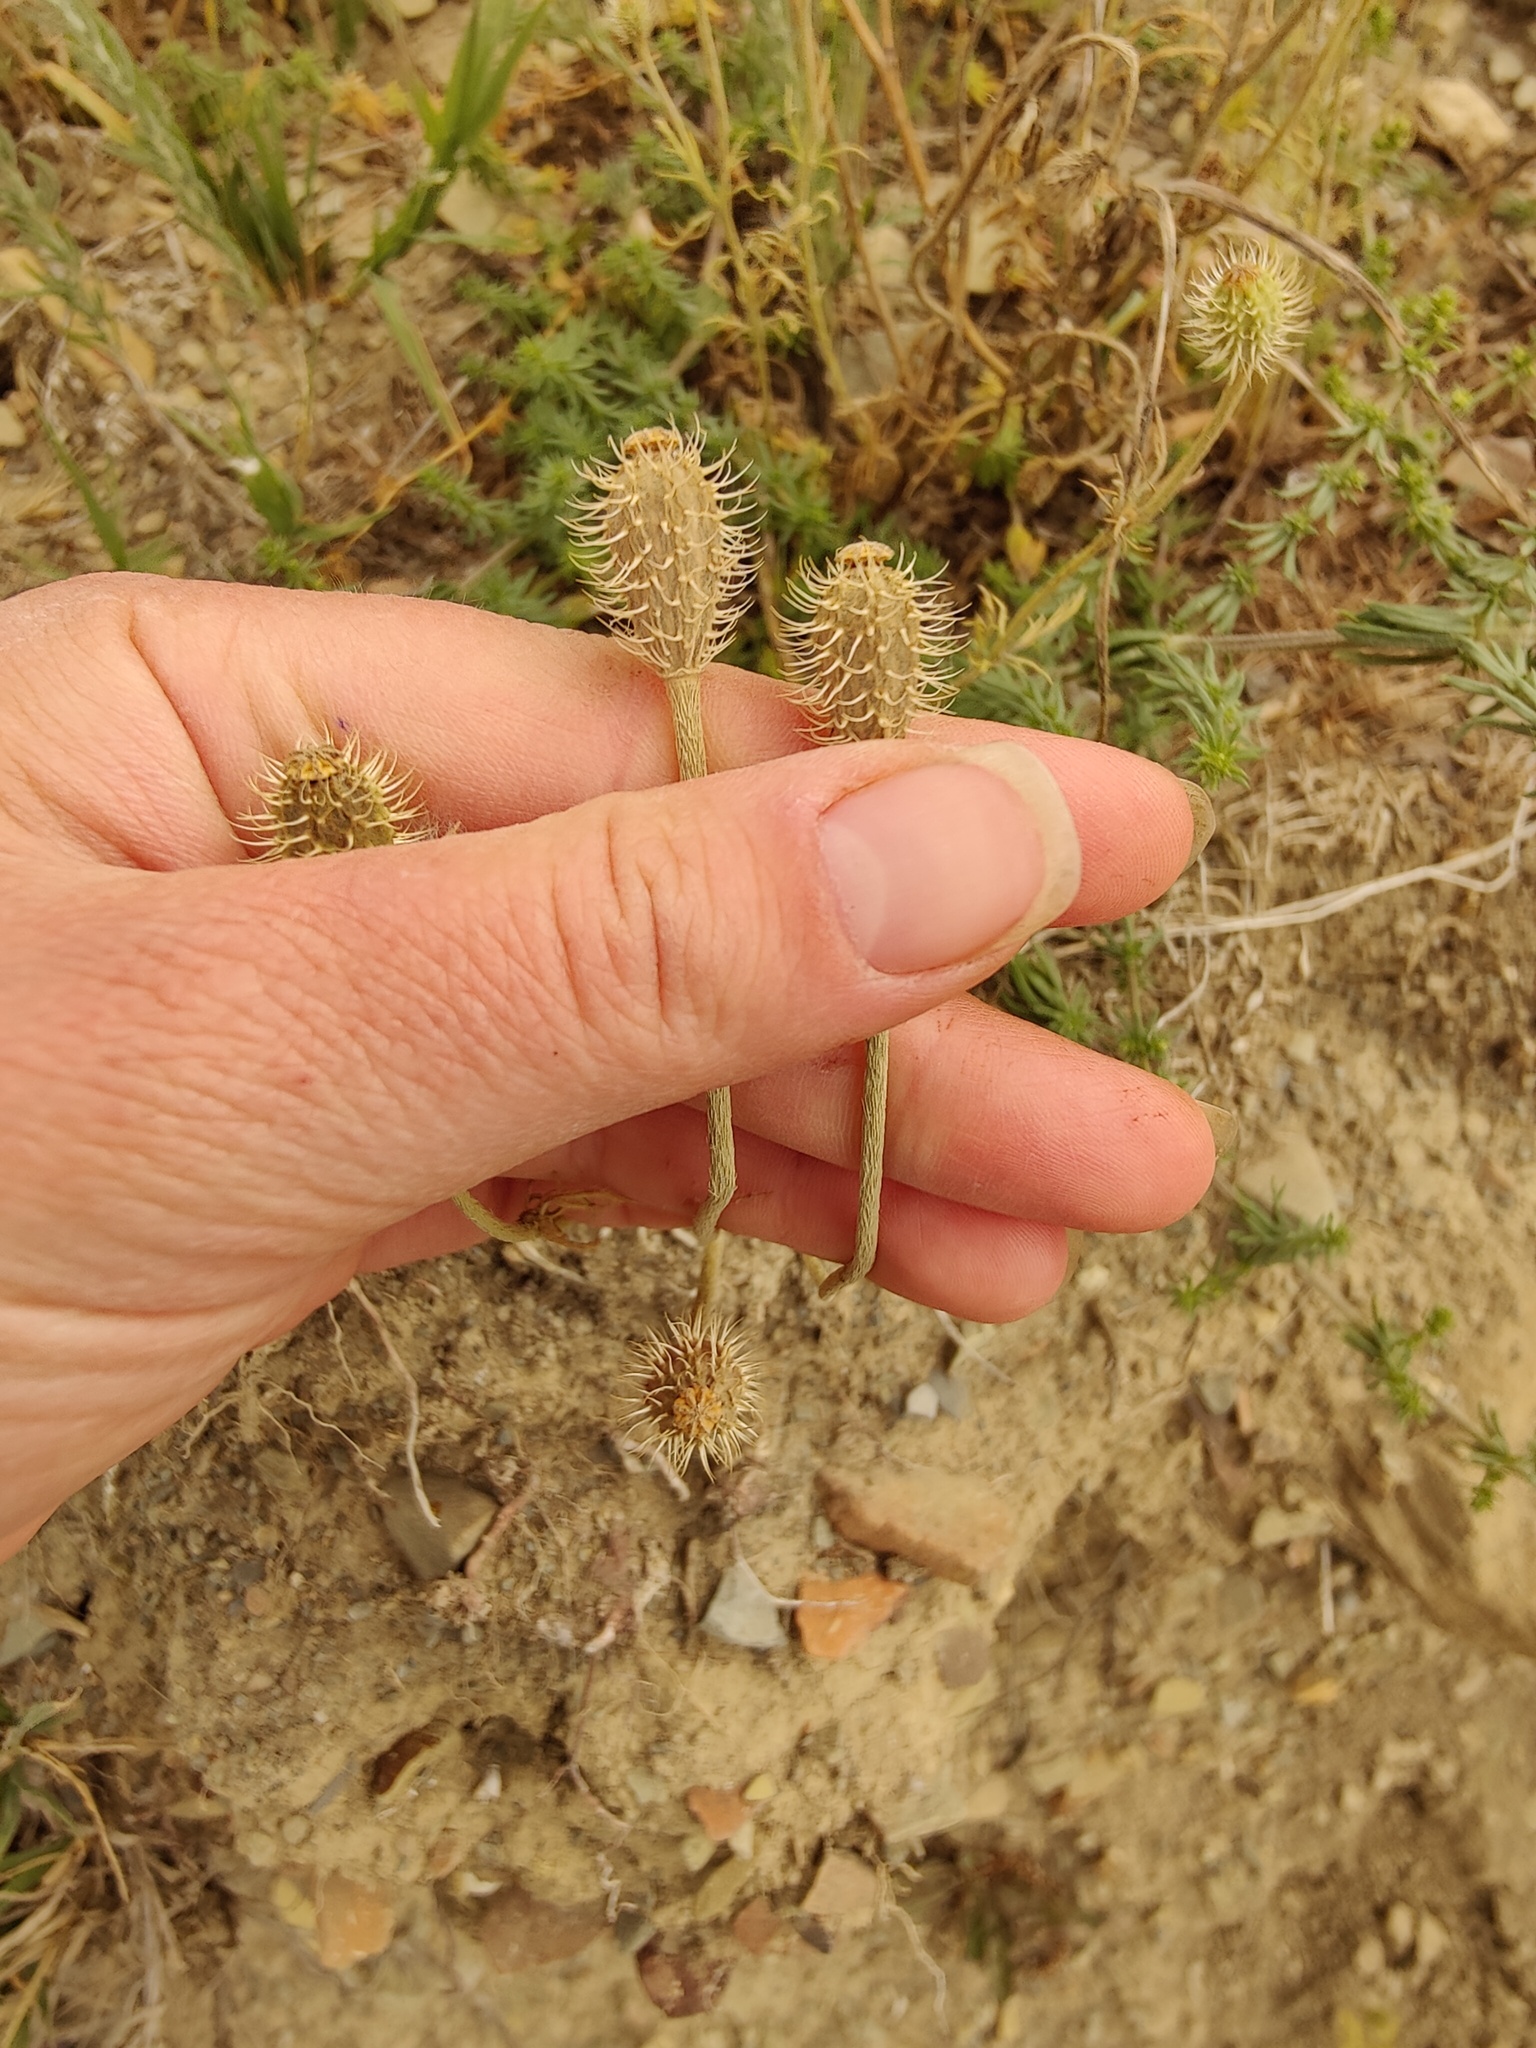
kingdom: Plantae
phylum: Tracheophyta
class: Magnoliopsida
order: Ranunculales
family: Papaveraceae
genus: Roemeria
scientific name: Roemeria hispida
